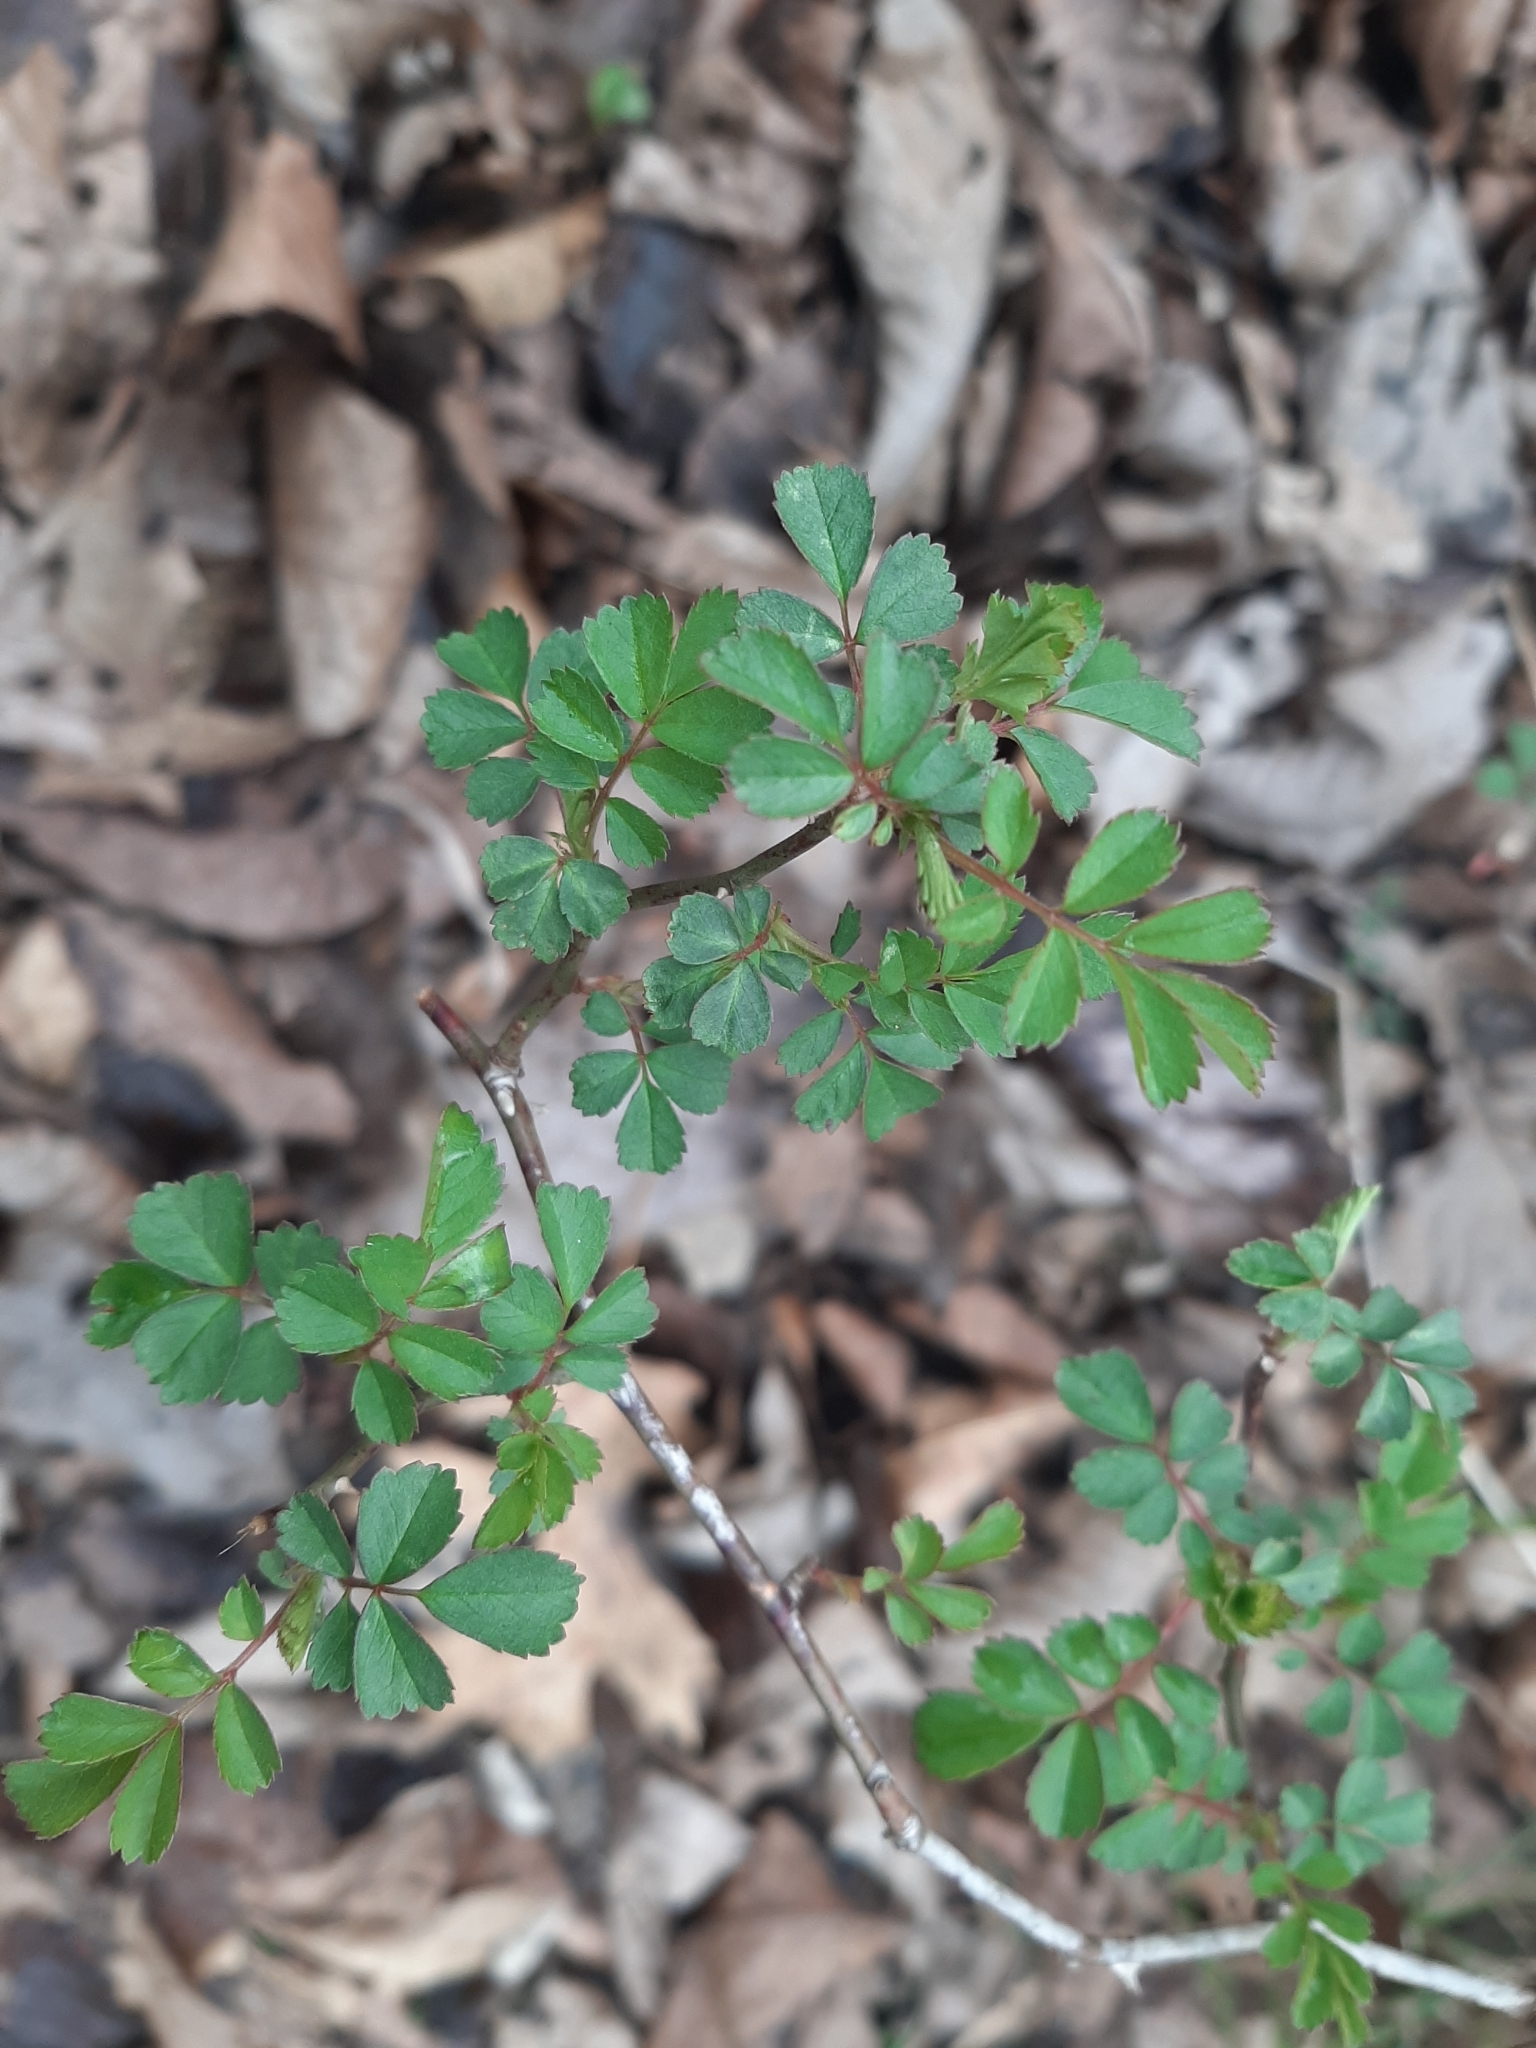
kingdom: Plantae
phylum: Tracheophyta
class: Magnoliopsida
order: Rosales
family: Rosaceae
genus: Rosa
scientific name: Rosa multiflora
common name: Multiflora rose
